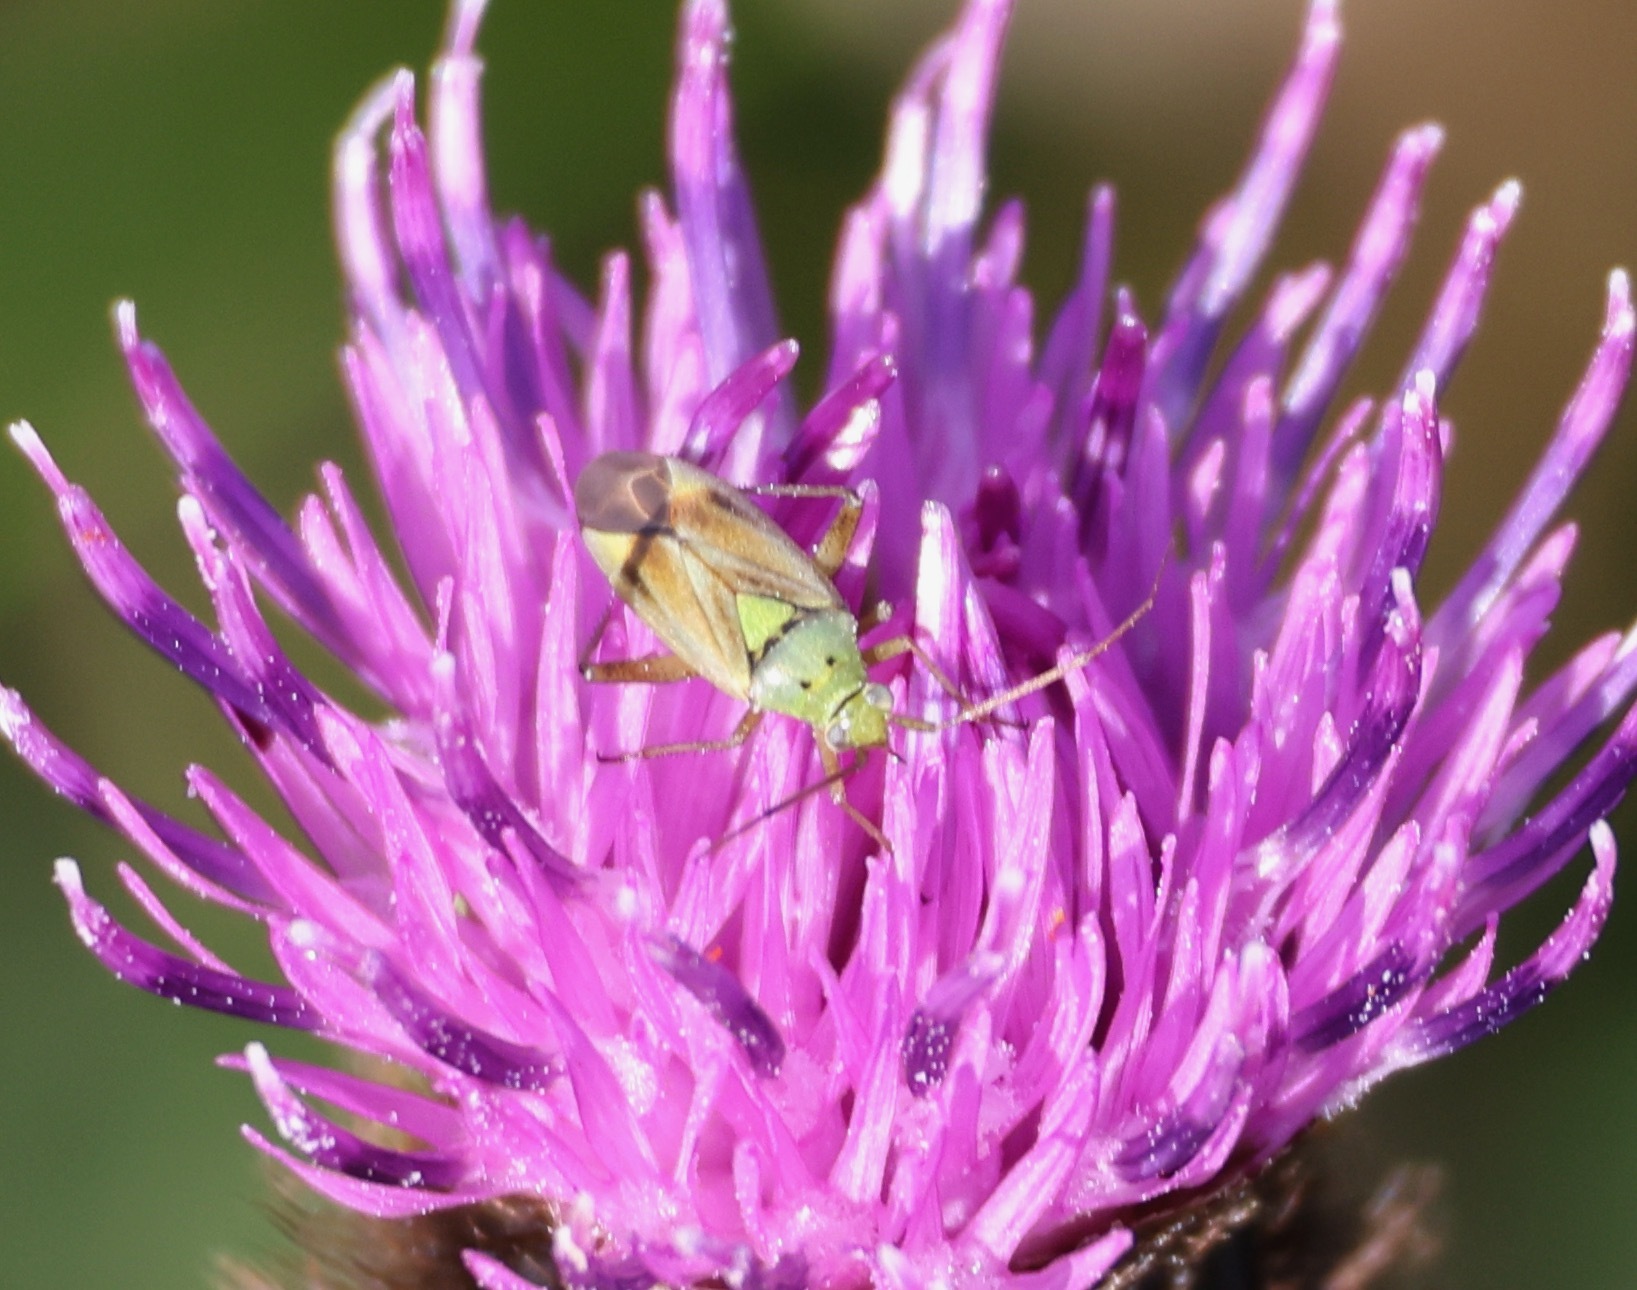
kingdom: Animalia
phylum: Arthropoda
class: Insecta
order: Hemiptera
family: Miridae
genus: Closterotomus
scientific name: Closterotomus norvegicus
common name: Plant bug
